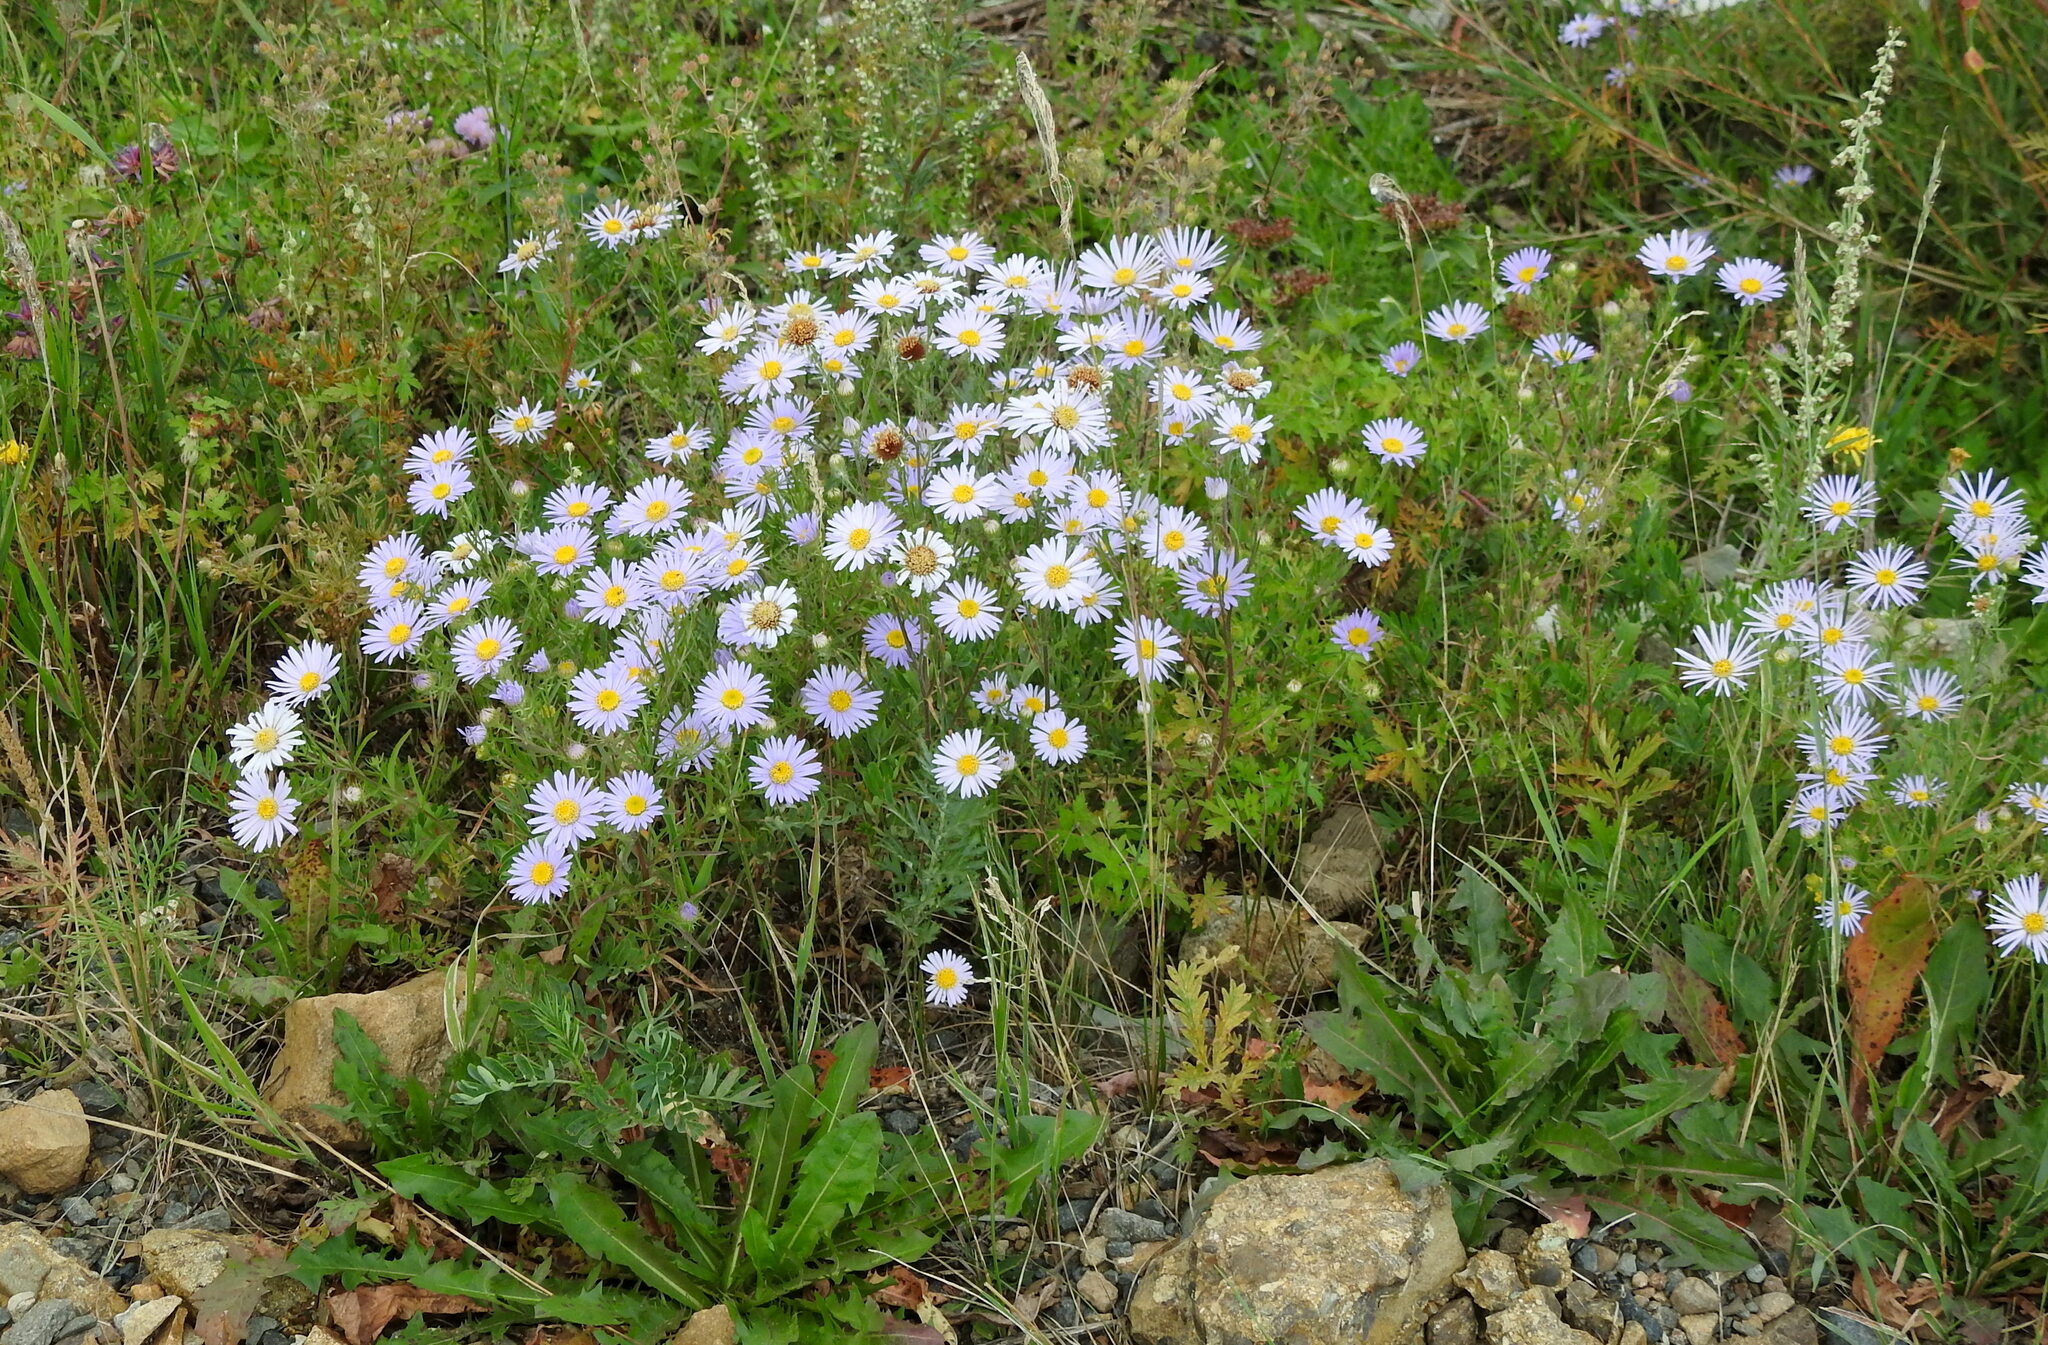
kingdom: Plantae
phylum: Tracheophyta
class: Magnoliopsida
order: Asterales
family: Asteraceae
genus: Heteropappus
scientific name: Heteropappus altaicus
